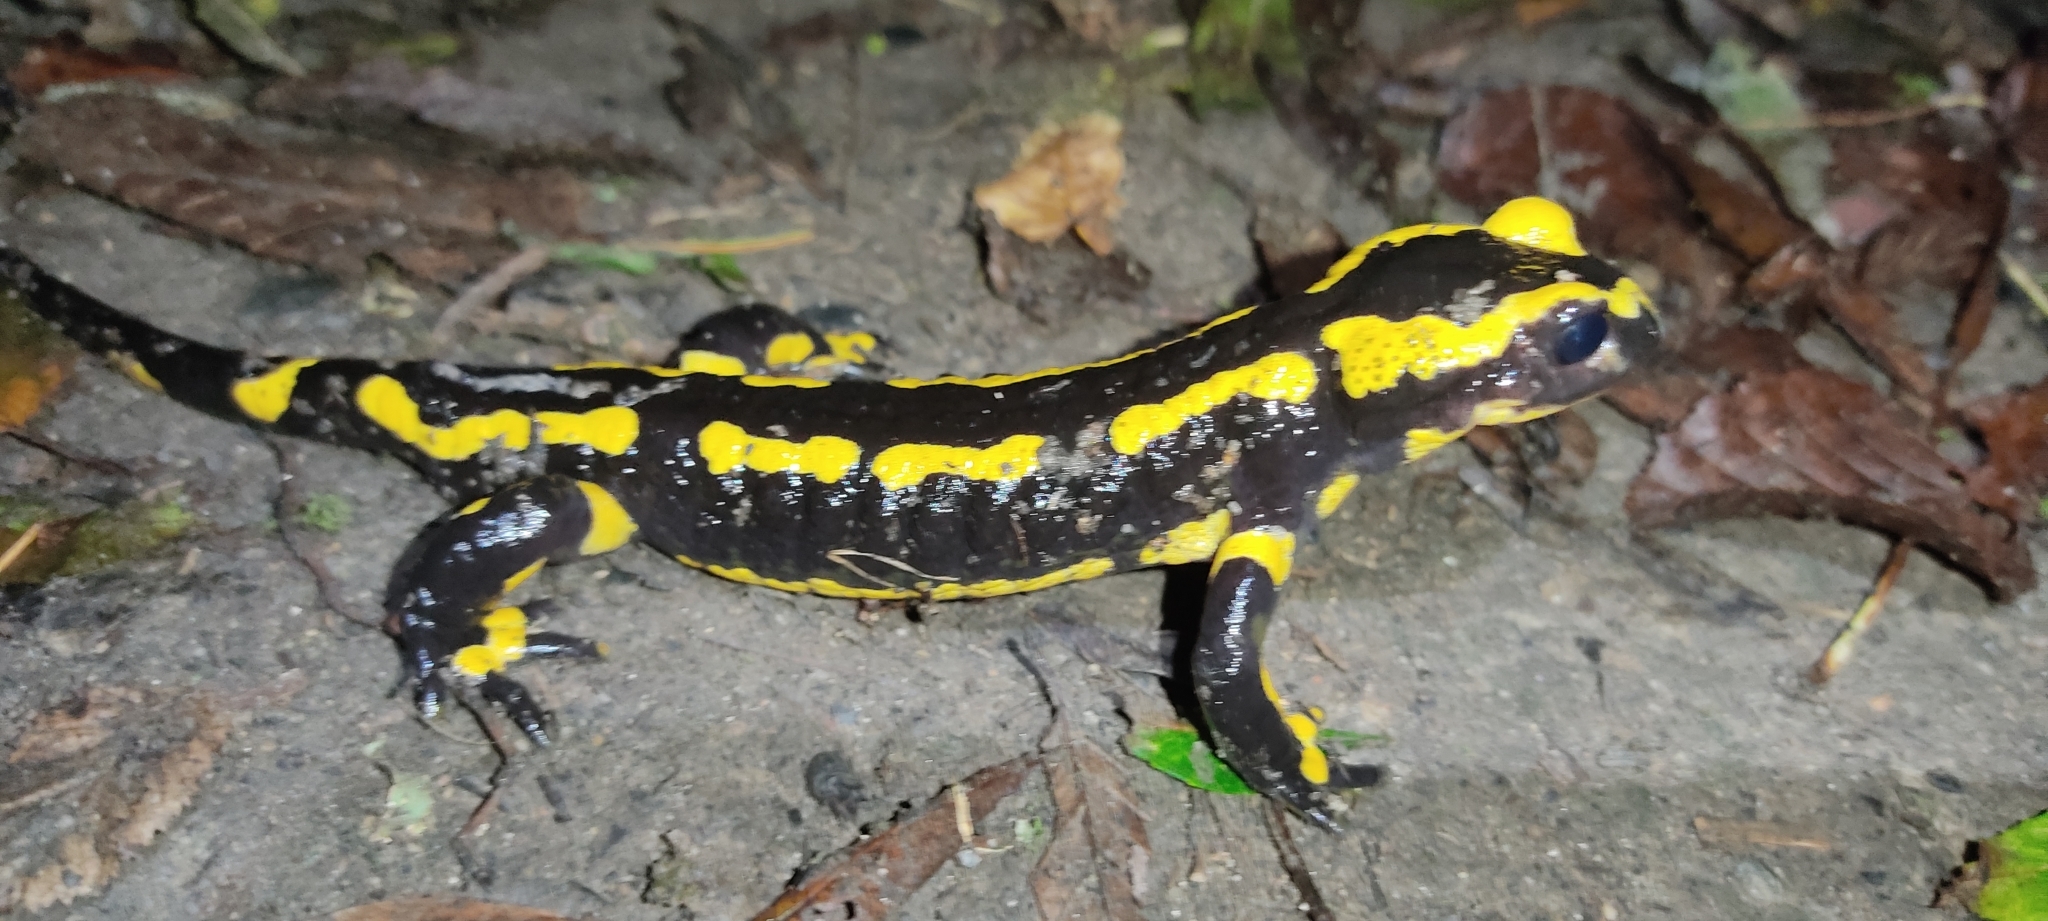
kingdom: Animalia
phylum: Chordata
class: Amphibia
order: Caudata
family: Salamandridae
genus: Salamandra
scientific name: Salamandra salamandra
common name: Fire salamander
